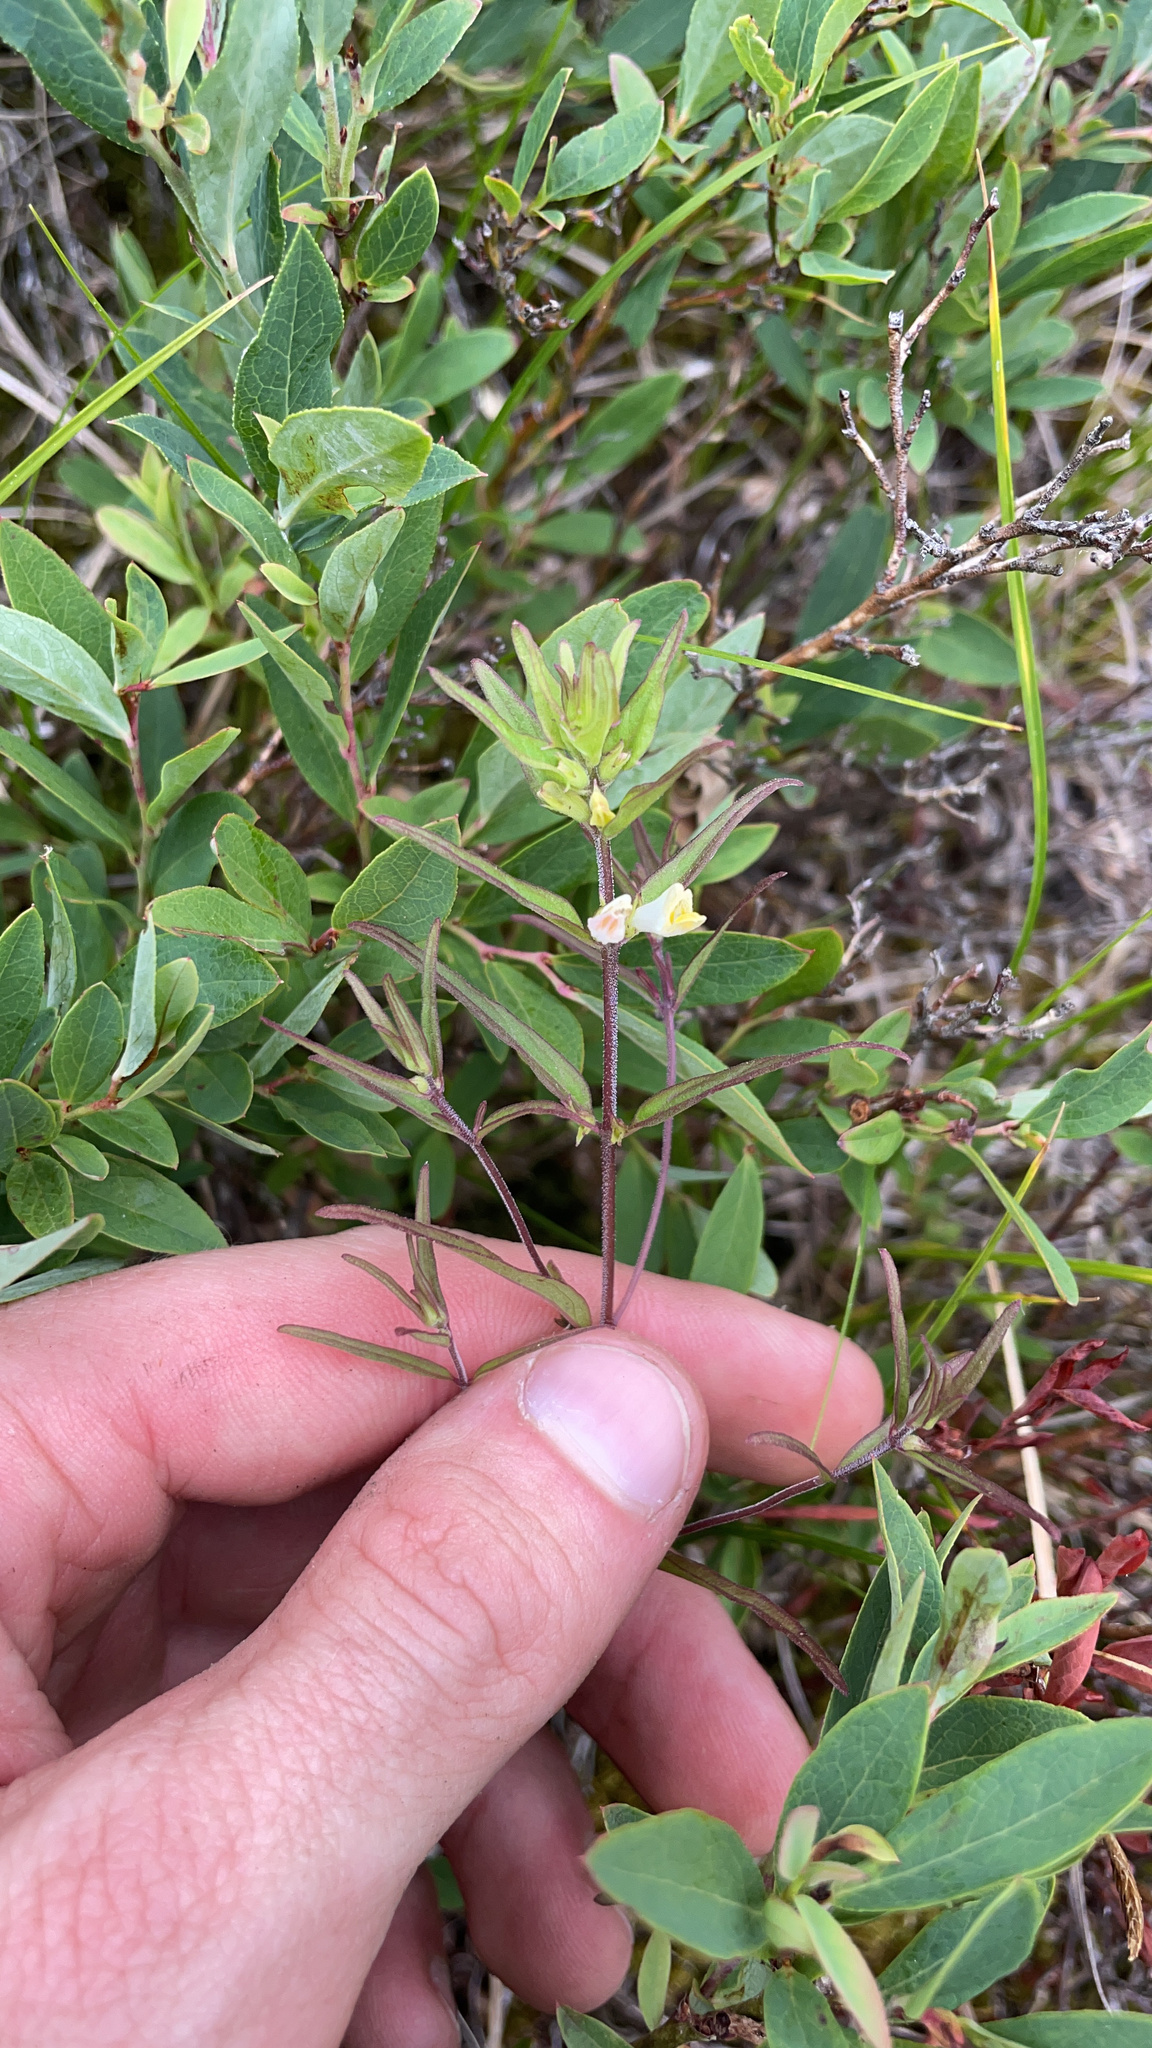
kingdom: Plantae
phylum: Tracheophyta
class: Magnoliopsida
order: Lamiales
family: Orobanchaceae
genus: Melampyrum
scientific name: Melampyrum lineare
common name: American cow-wheat
